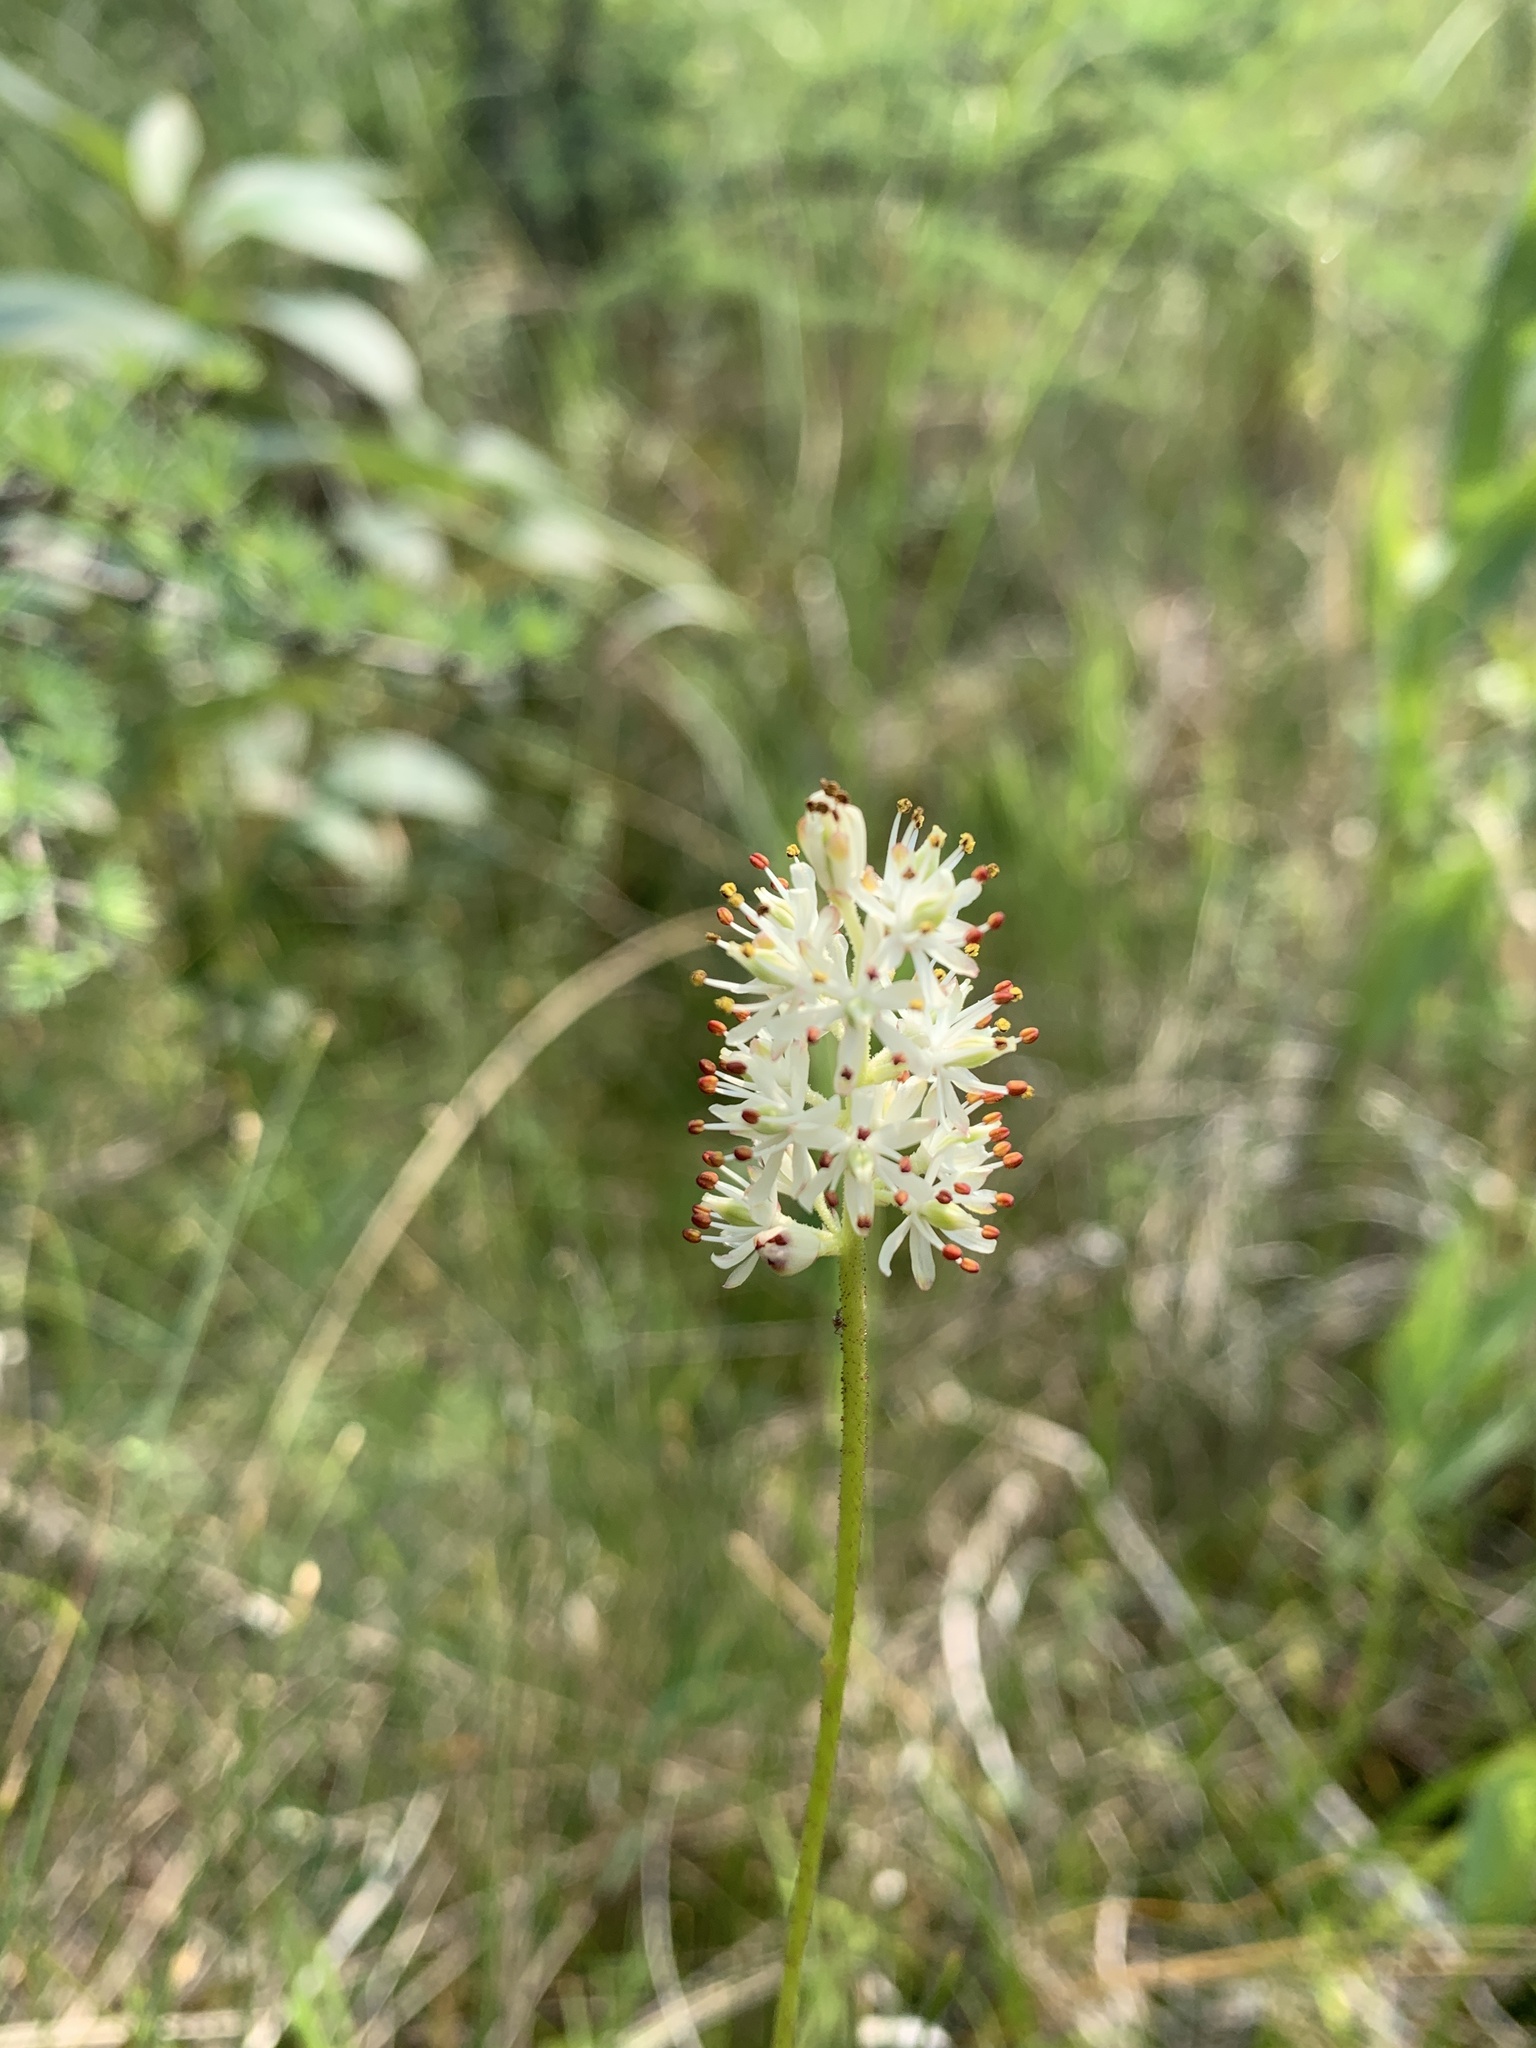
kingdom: Plantae
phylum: Tracheophyta
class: Liliopsida
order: Alismatales
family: Tofieldiaceae
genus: Triantha
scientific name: Triantha glutinosa
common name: Glutinous tofieldia
